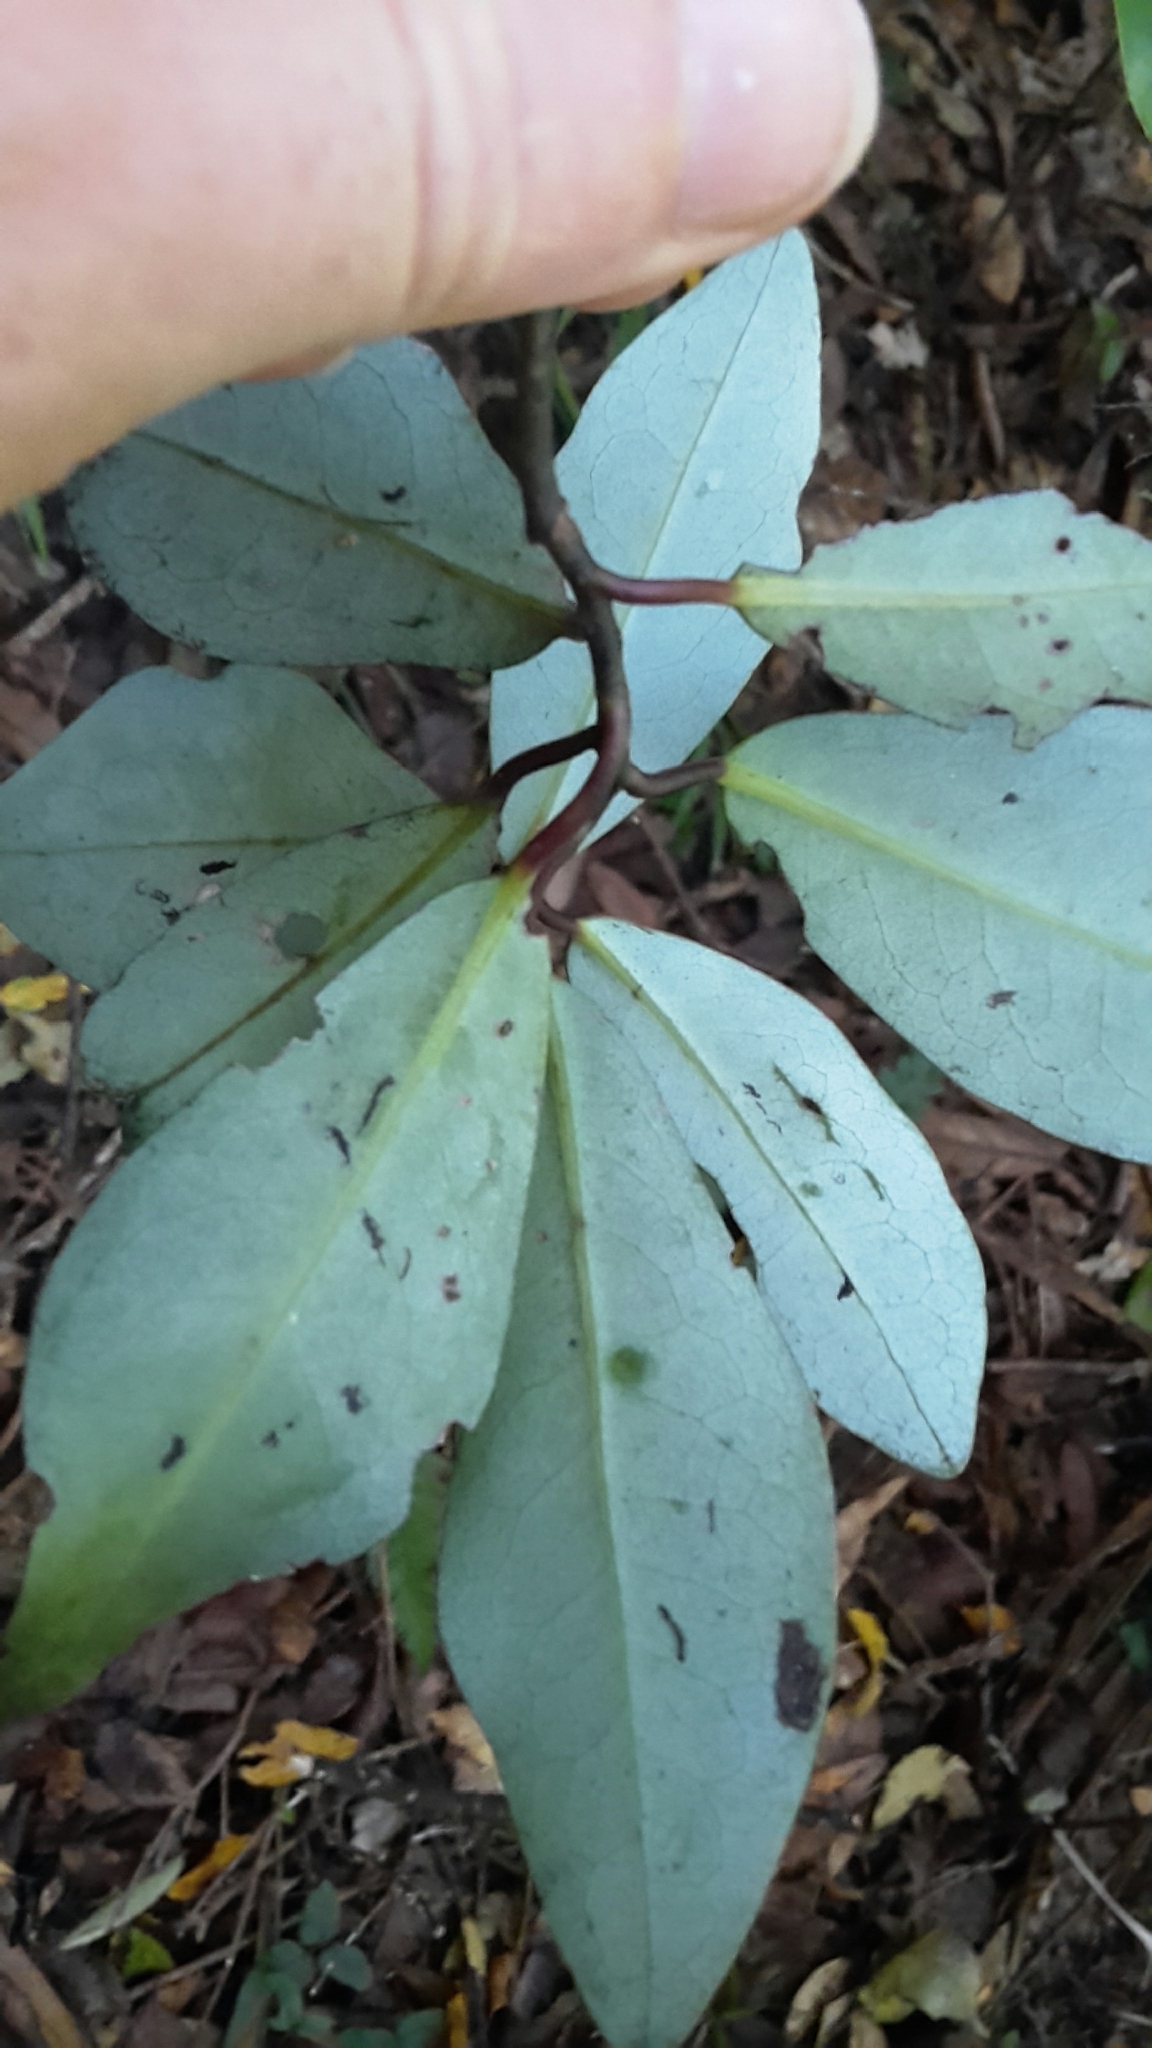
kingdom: Plantae
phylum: Tracheophyta
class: Magnoliopsida
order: Canellales
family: Winteraceae
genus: Pseudowintera
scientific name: Pseudowintera axillaris
